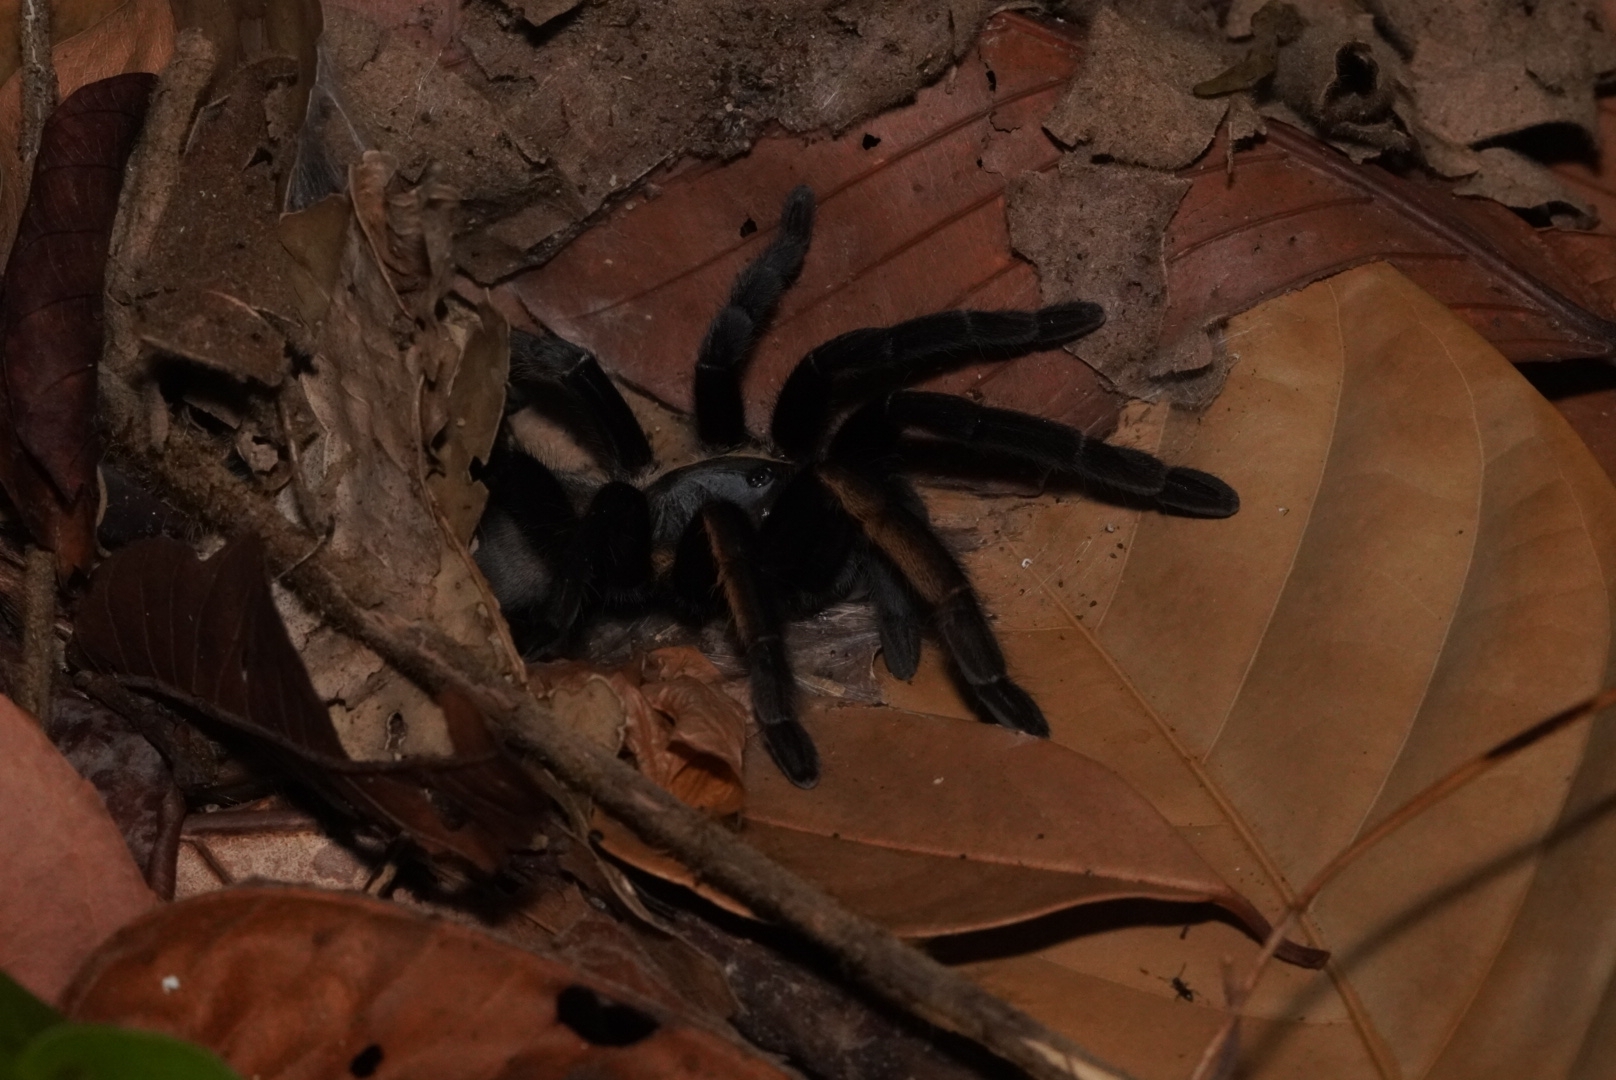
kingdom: Animalia
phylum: Arthropoda
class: Arachnida
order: Araneae
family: Theraphosidae
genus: Ornithoctonus
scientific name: Ornithoctonus aureotibialis
